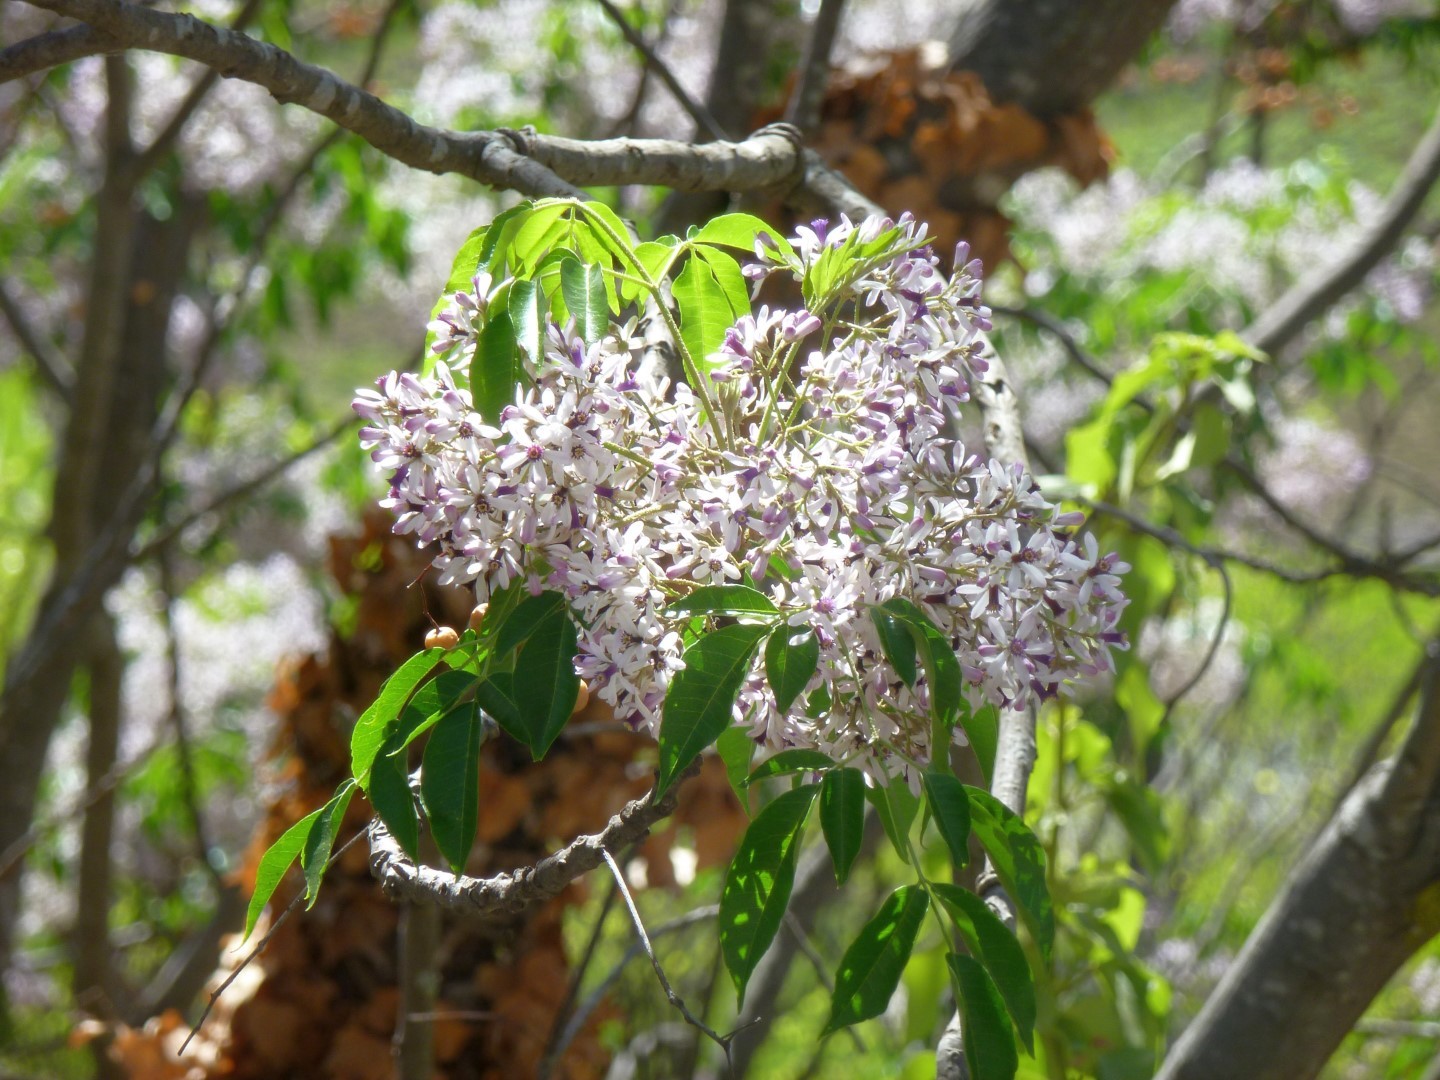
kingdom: Plantae
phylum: Tracheophyta
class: Magnoliopsida
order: Sapindales
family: Meliaceae
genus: Melia
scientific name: Melia azedarach
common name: Chinaberrytree
